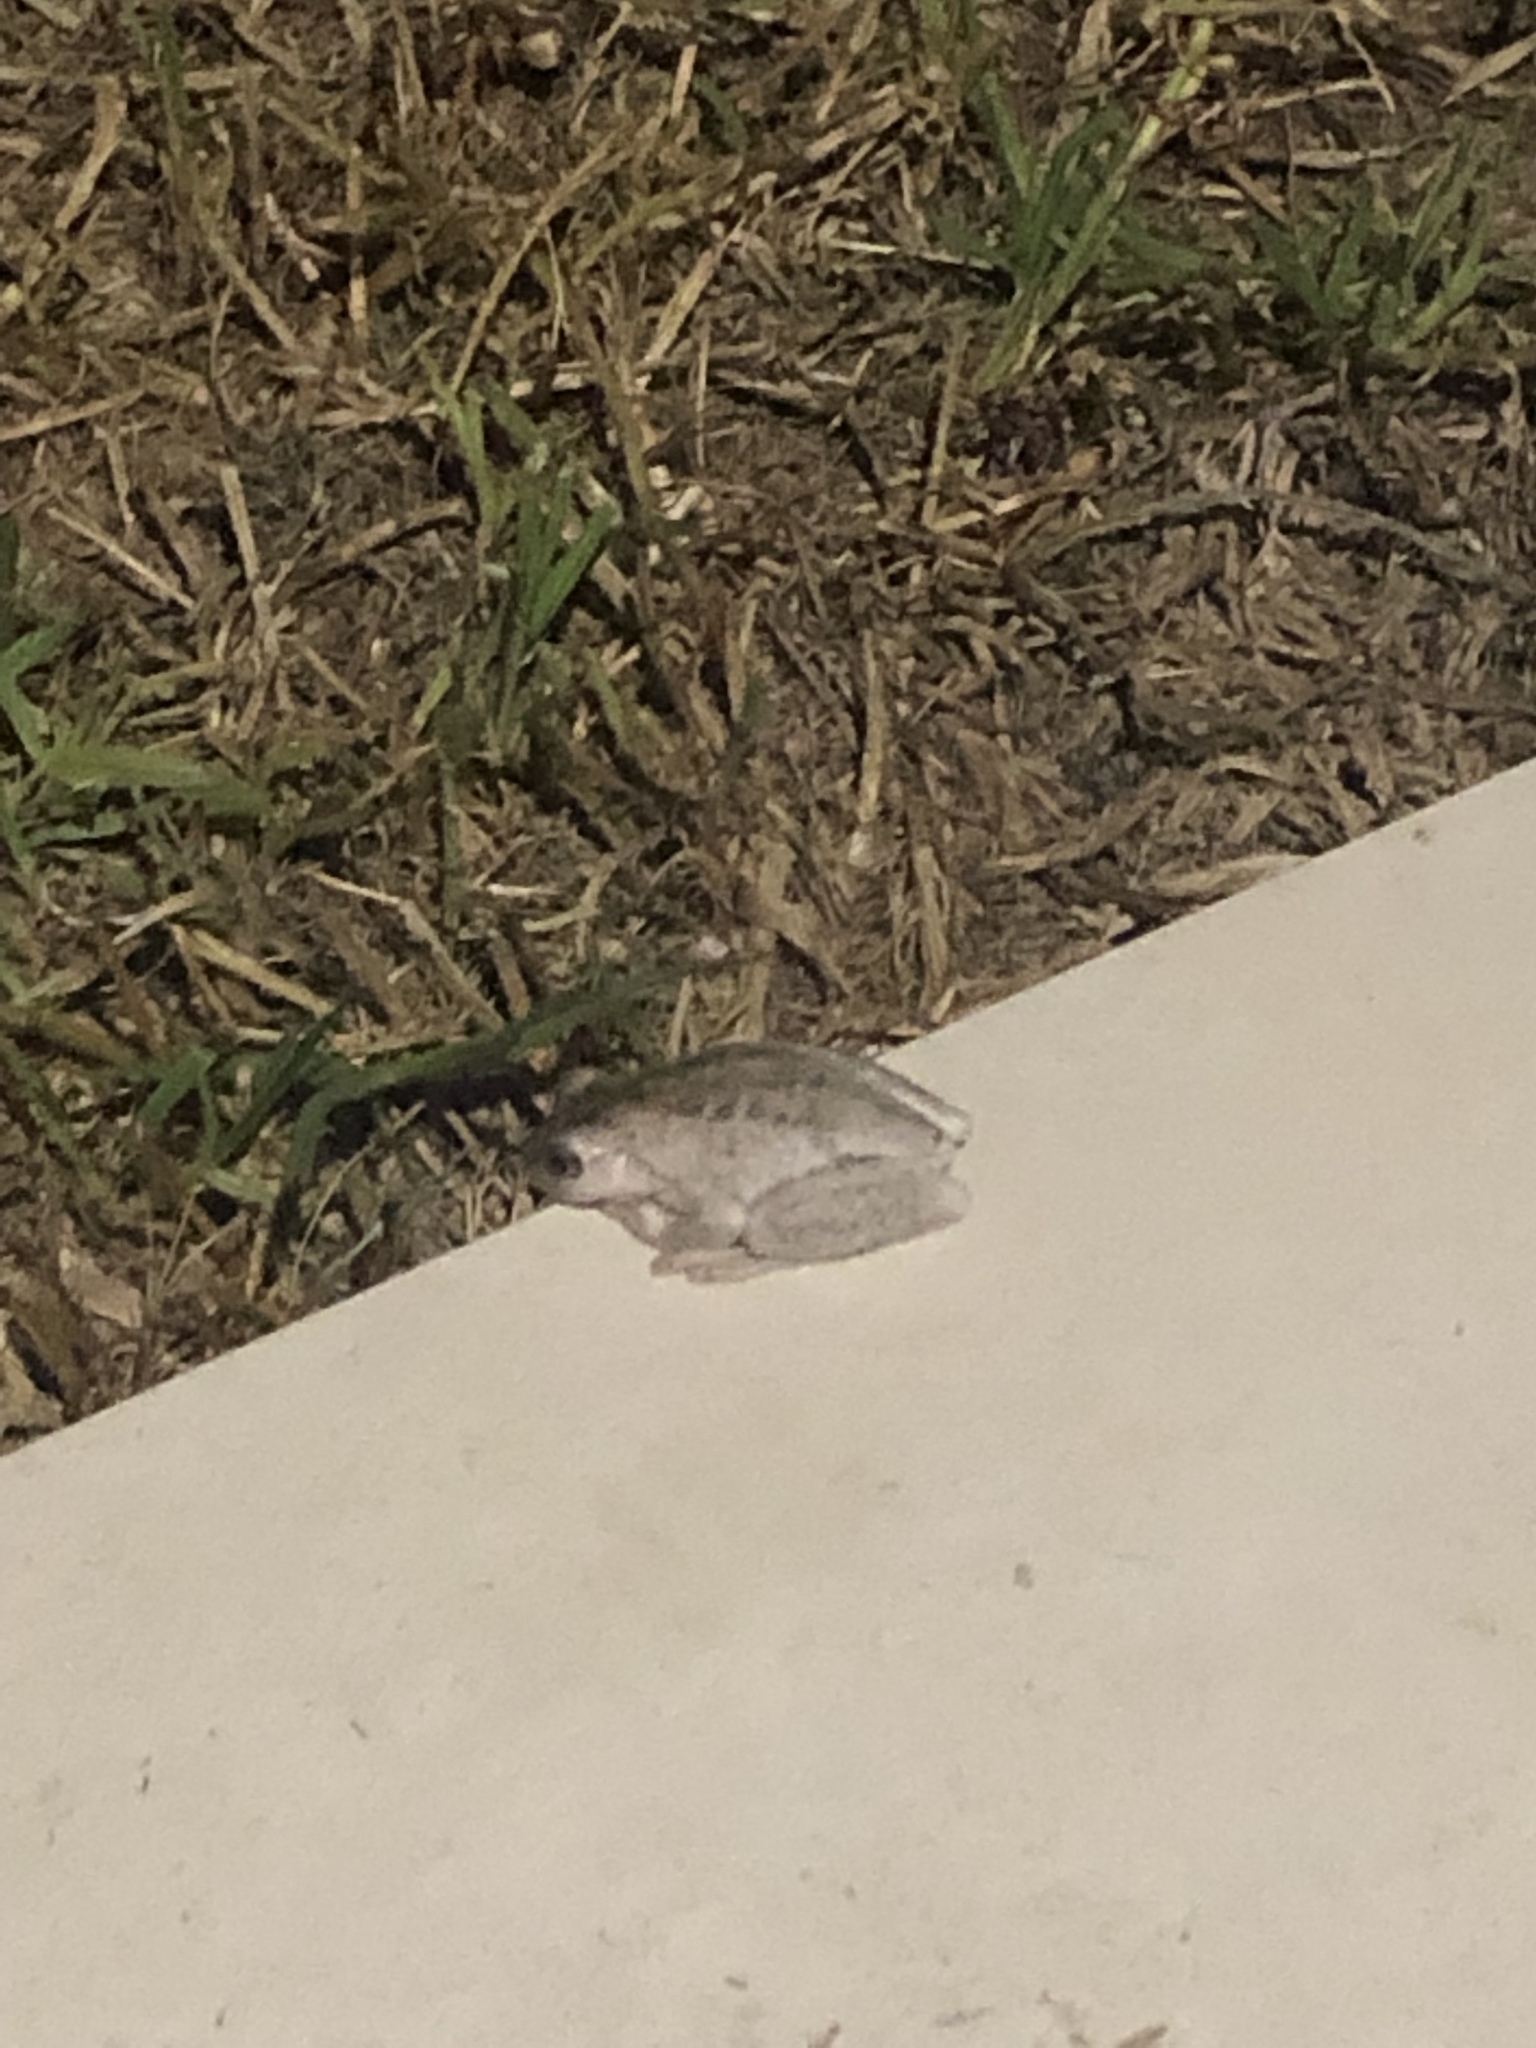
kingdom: Animalia
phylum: Chordata
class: Amphibia
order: Anura
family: Pelodryadidae
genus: Litoria
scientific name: Litoria peronii
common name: Emerald spotted treefrog
